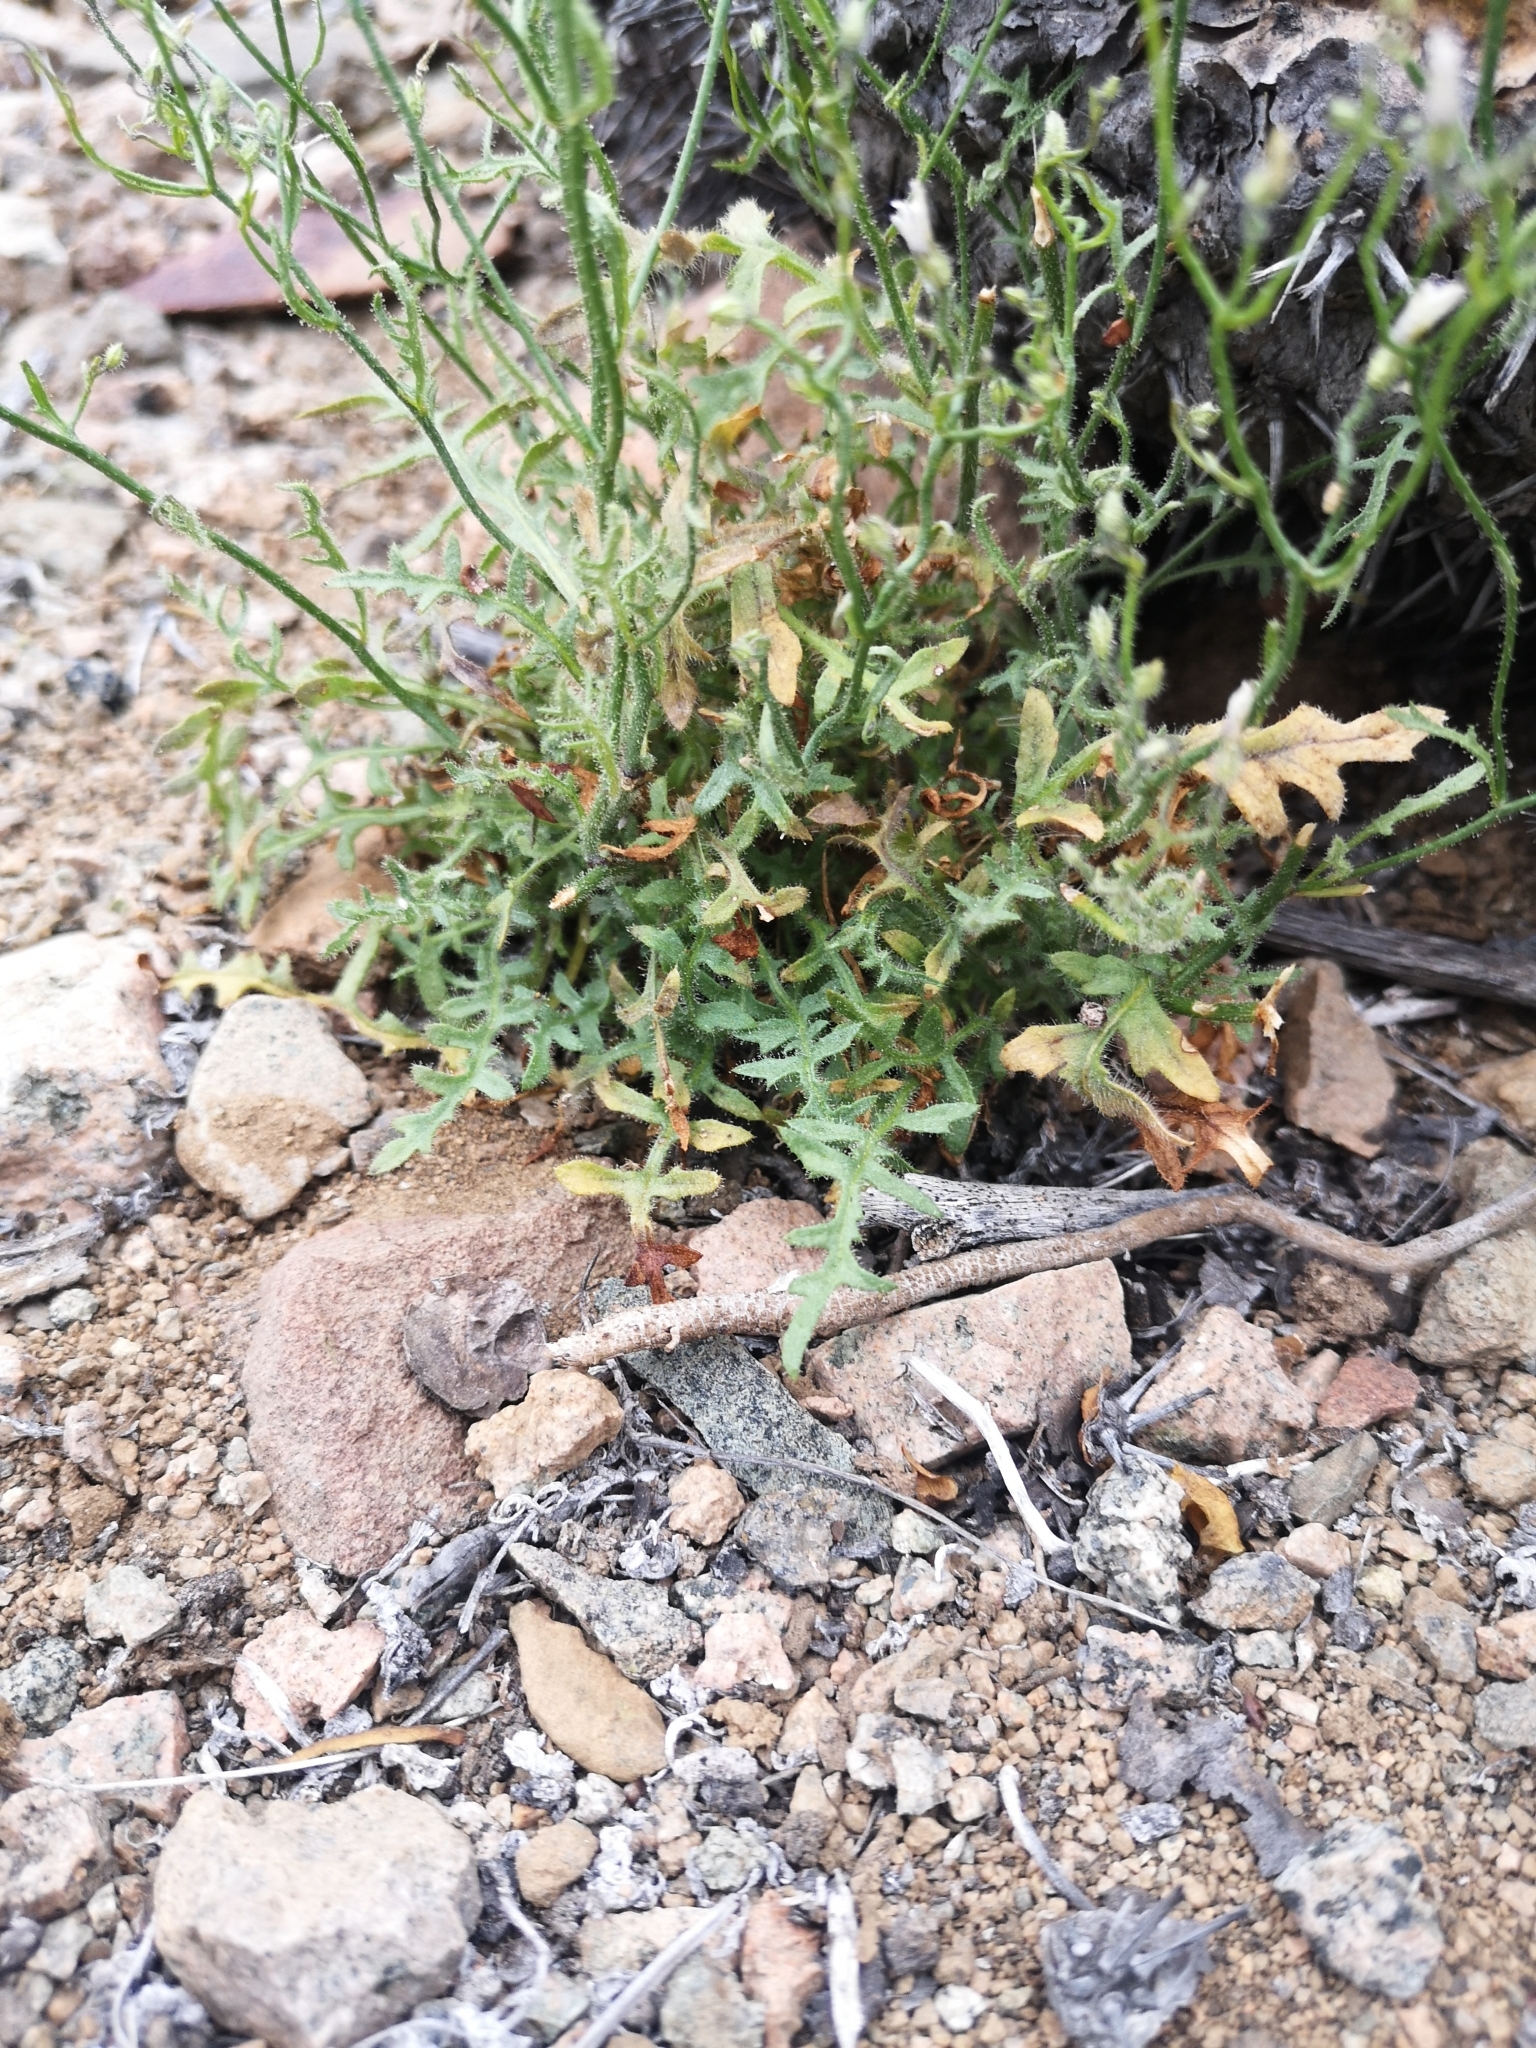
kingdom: Plantae
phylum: Tracheophyta
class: Magnoliopsida
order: Solanales
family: Solanaceae
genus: Reyesia
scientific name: Reyesia cactorum
